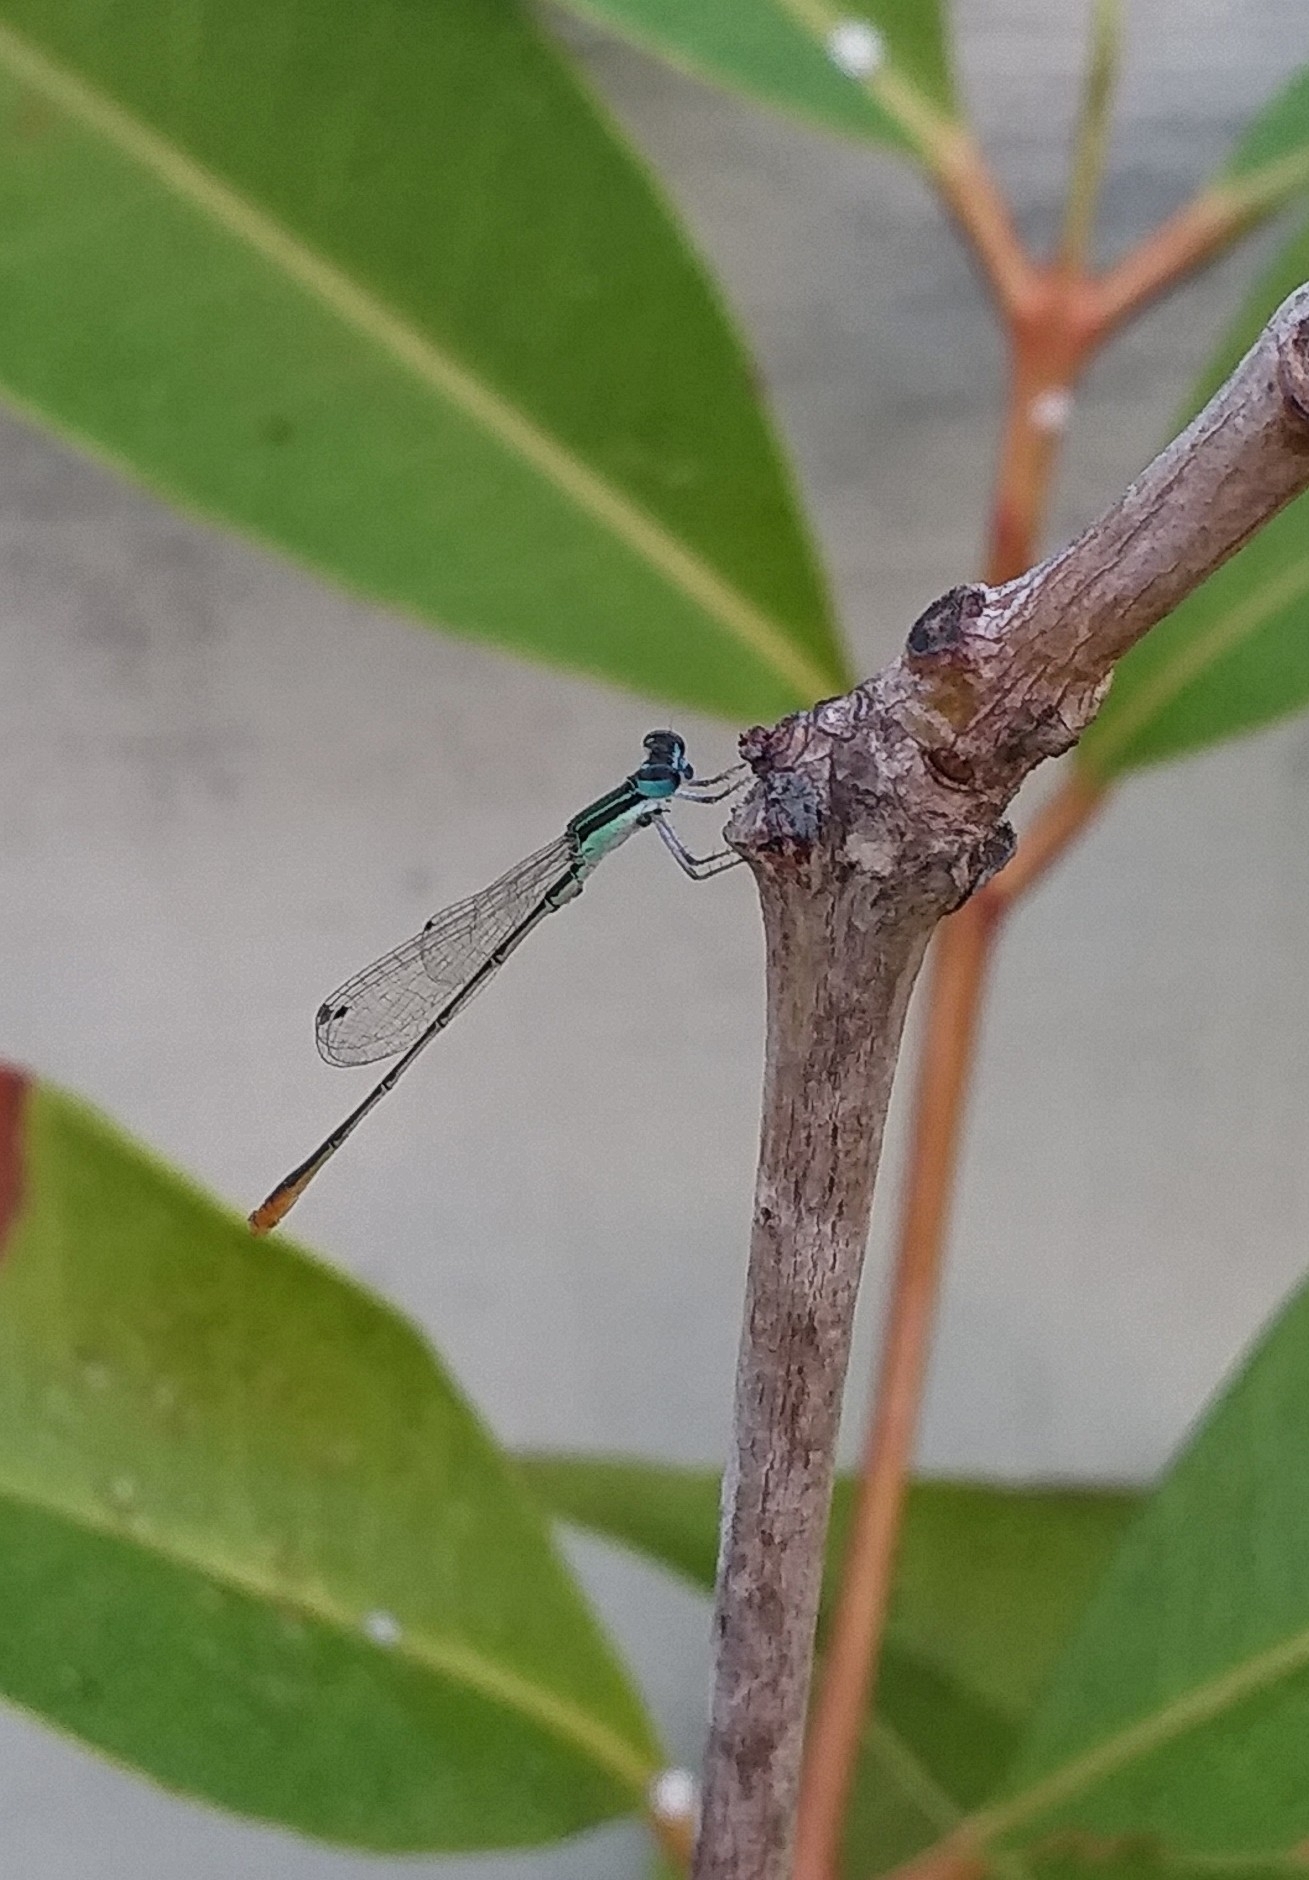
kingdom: Animalia
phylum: Arthropoda
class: Insecta
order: Odonata
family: Coenagrionidae
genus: Agriocnemis
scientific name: Agriocnemis pygmaea
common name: Pygmy wisp
